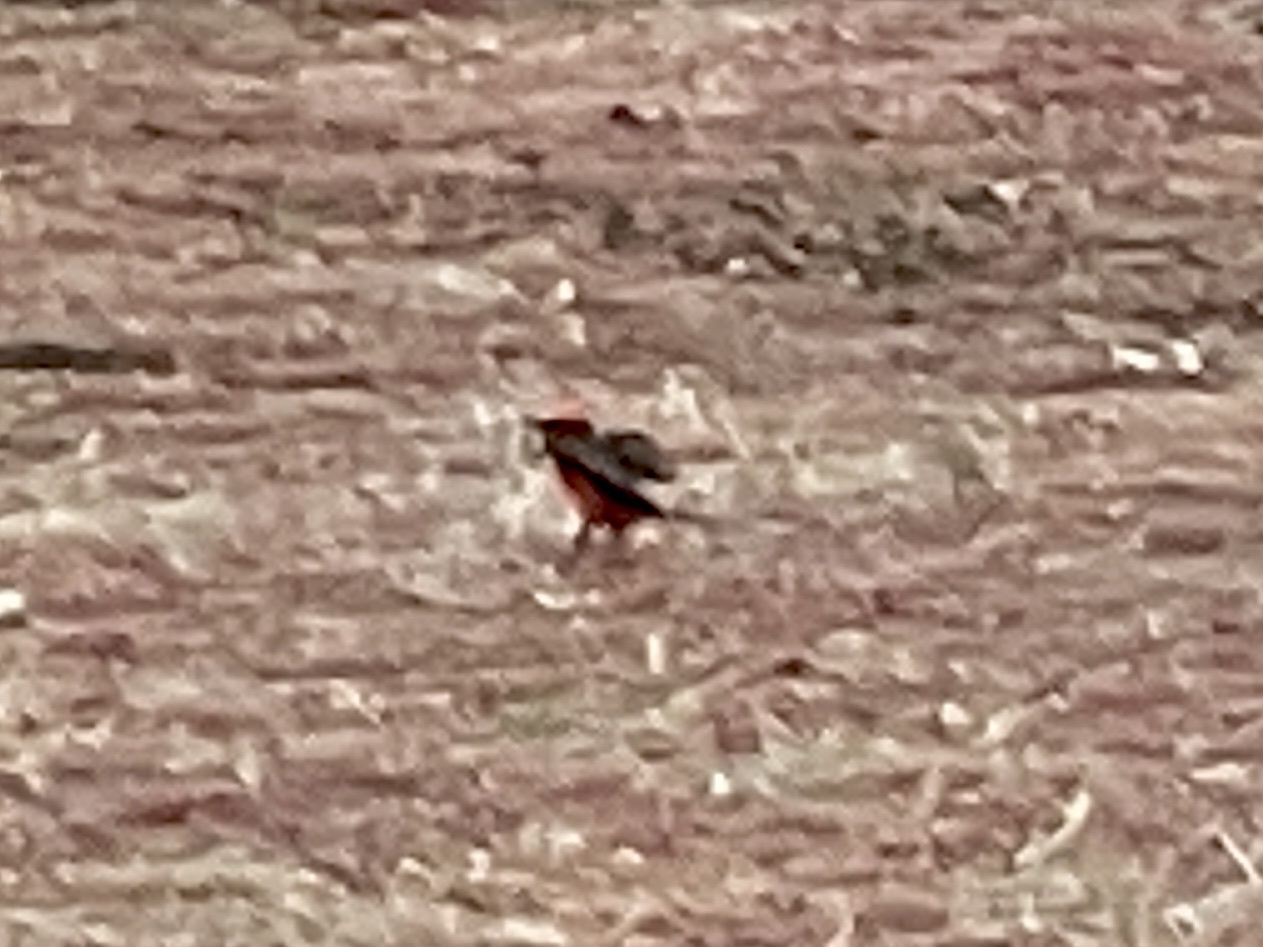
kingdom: Animalia
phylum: Chordata
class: Aves
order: Passeriformes
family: Tyrannidae
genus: Pyrocephalus
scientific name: Pyrocephalus rubinus
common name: Vermilion flycatcher
